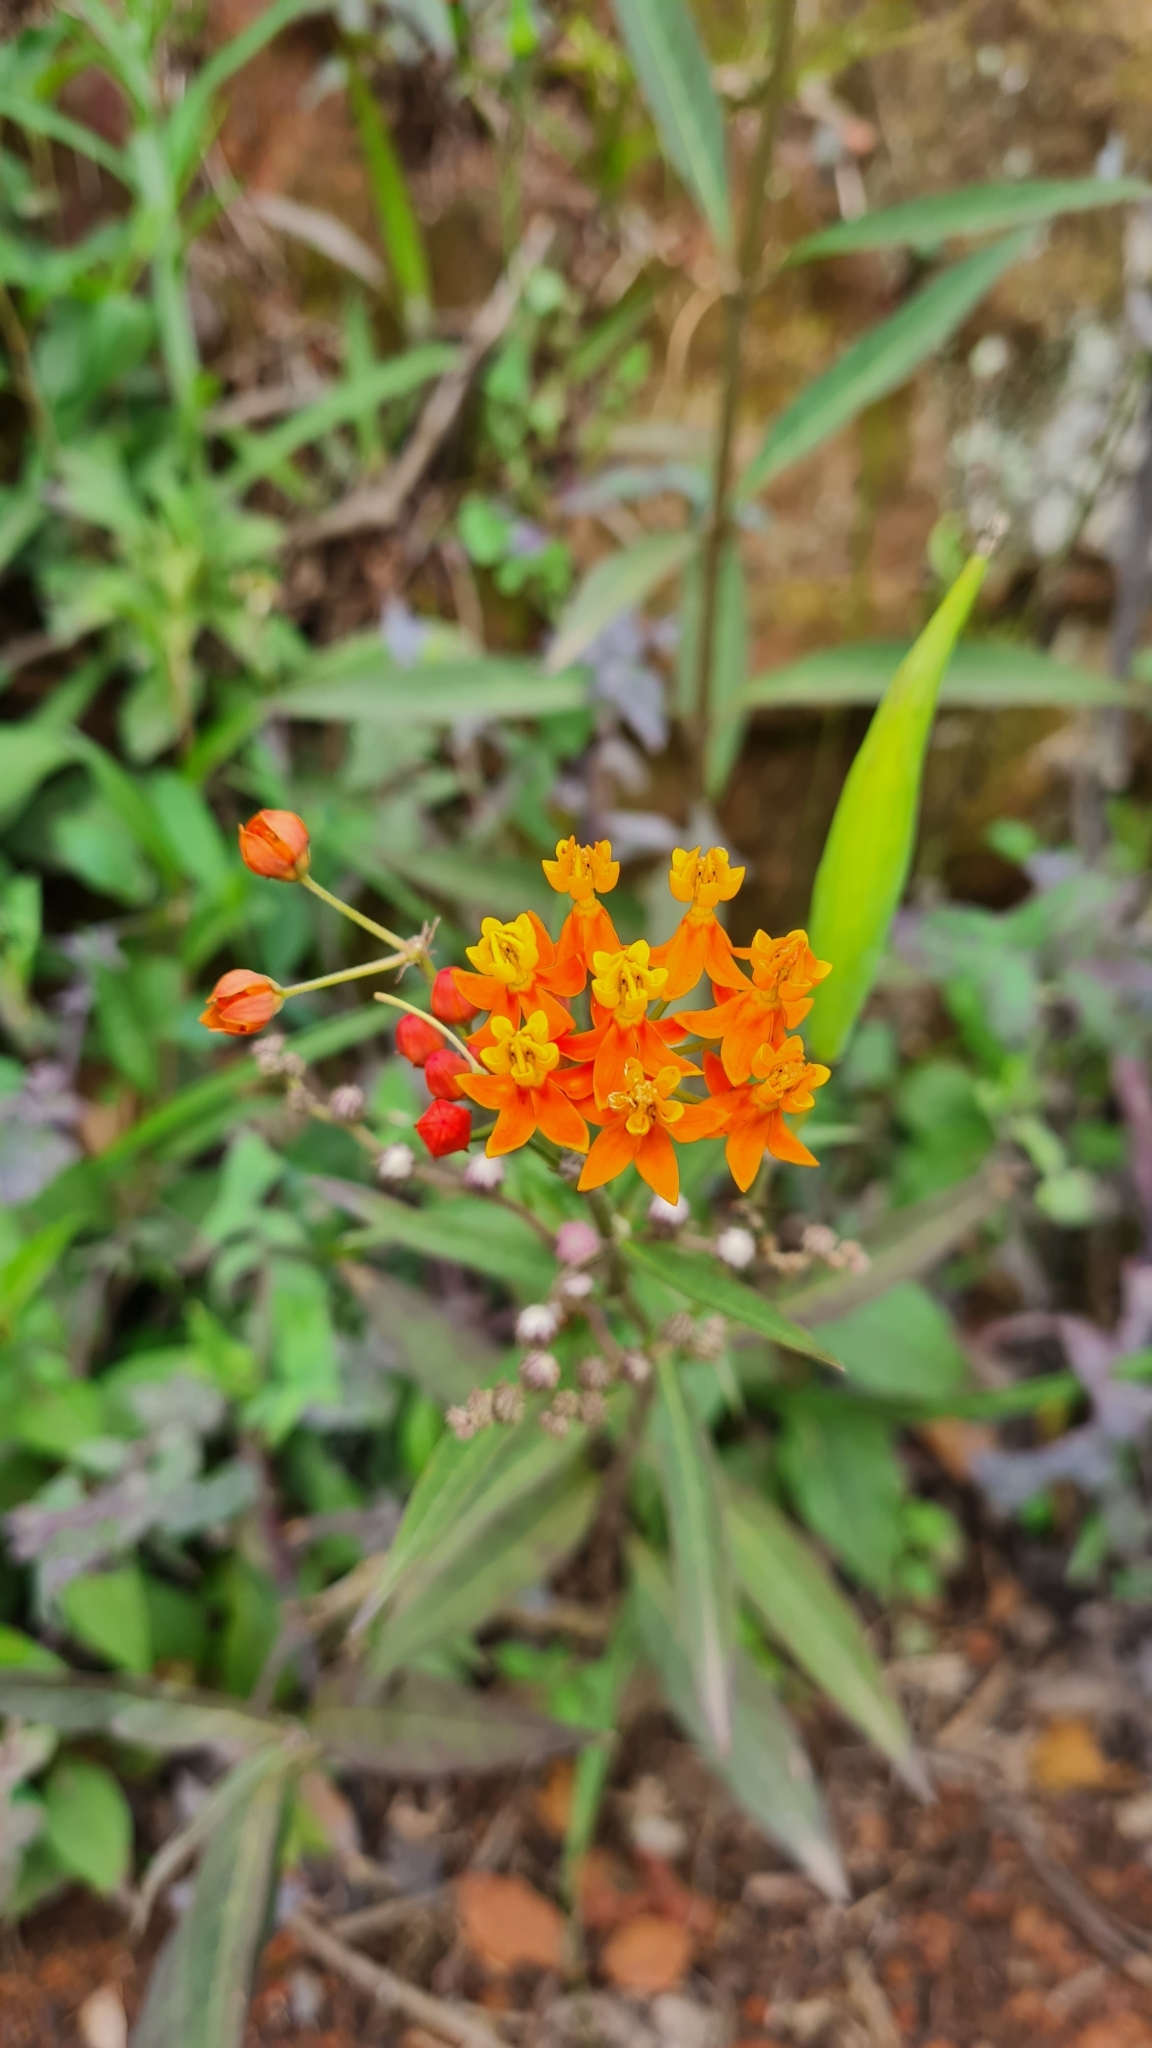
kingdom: Plantae
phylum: Tracheophyta
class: Magnoliopsida
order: Gentianales
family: Apocynaceae
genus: Asclepias
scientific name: Asclepias curassavica
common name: Bloodflower
